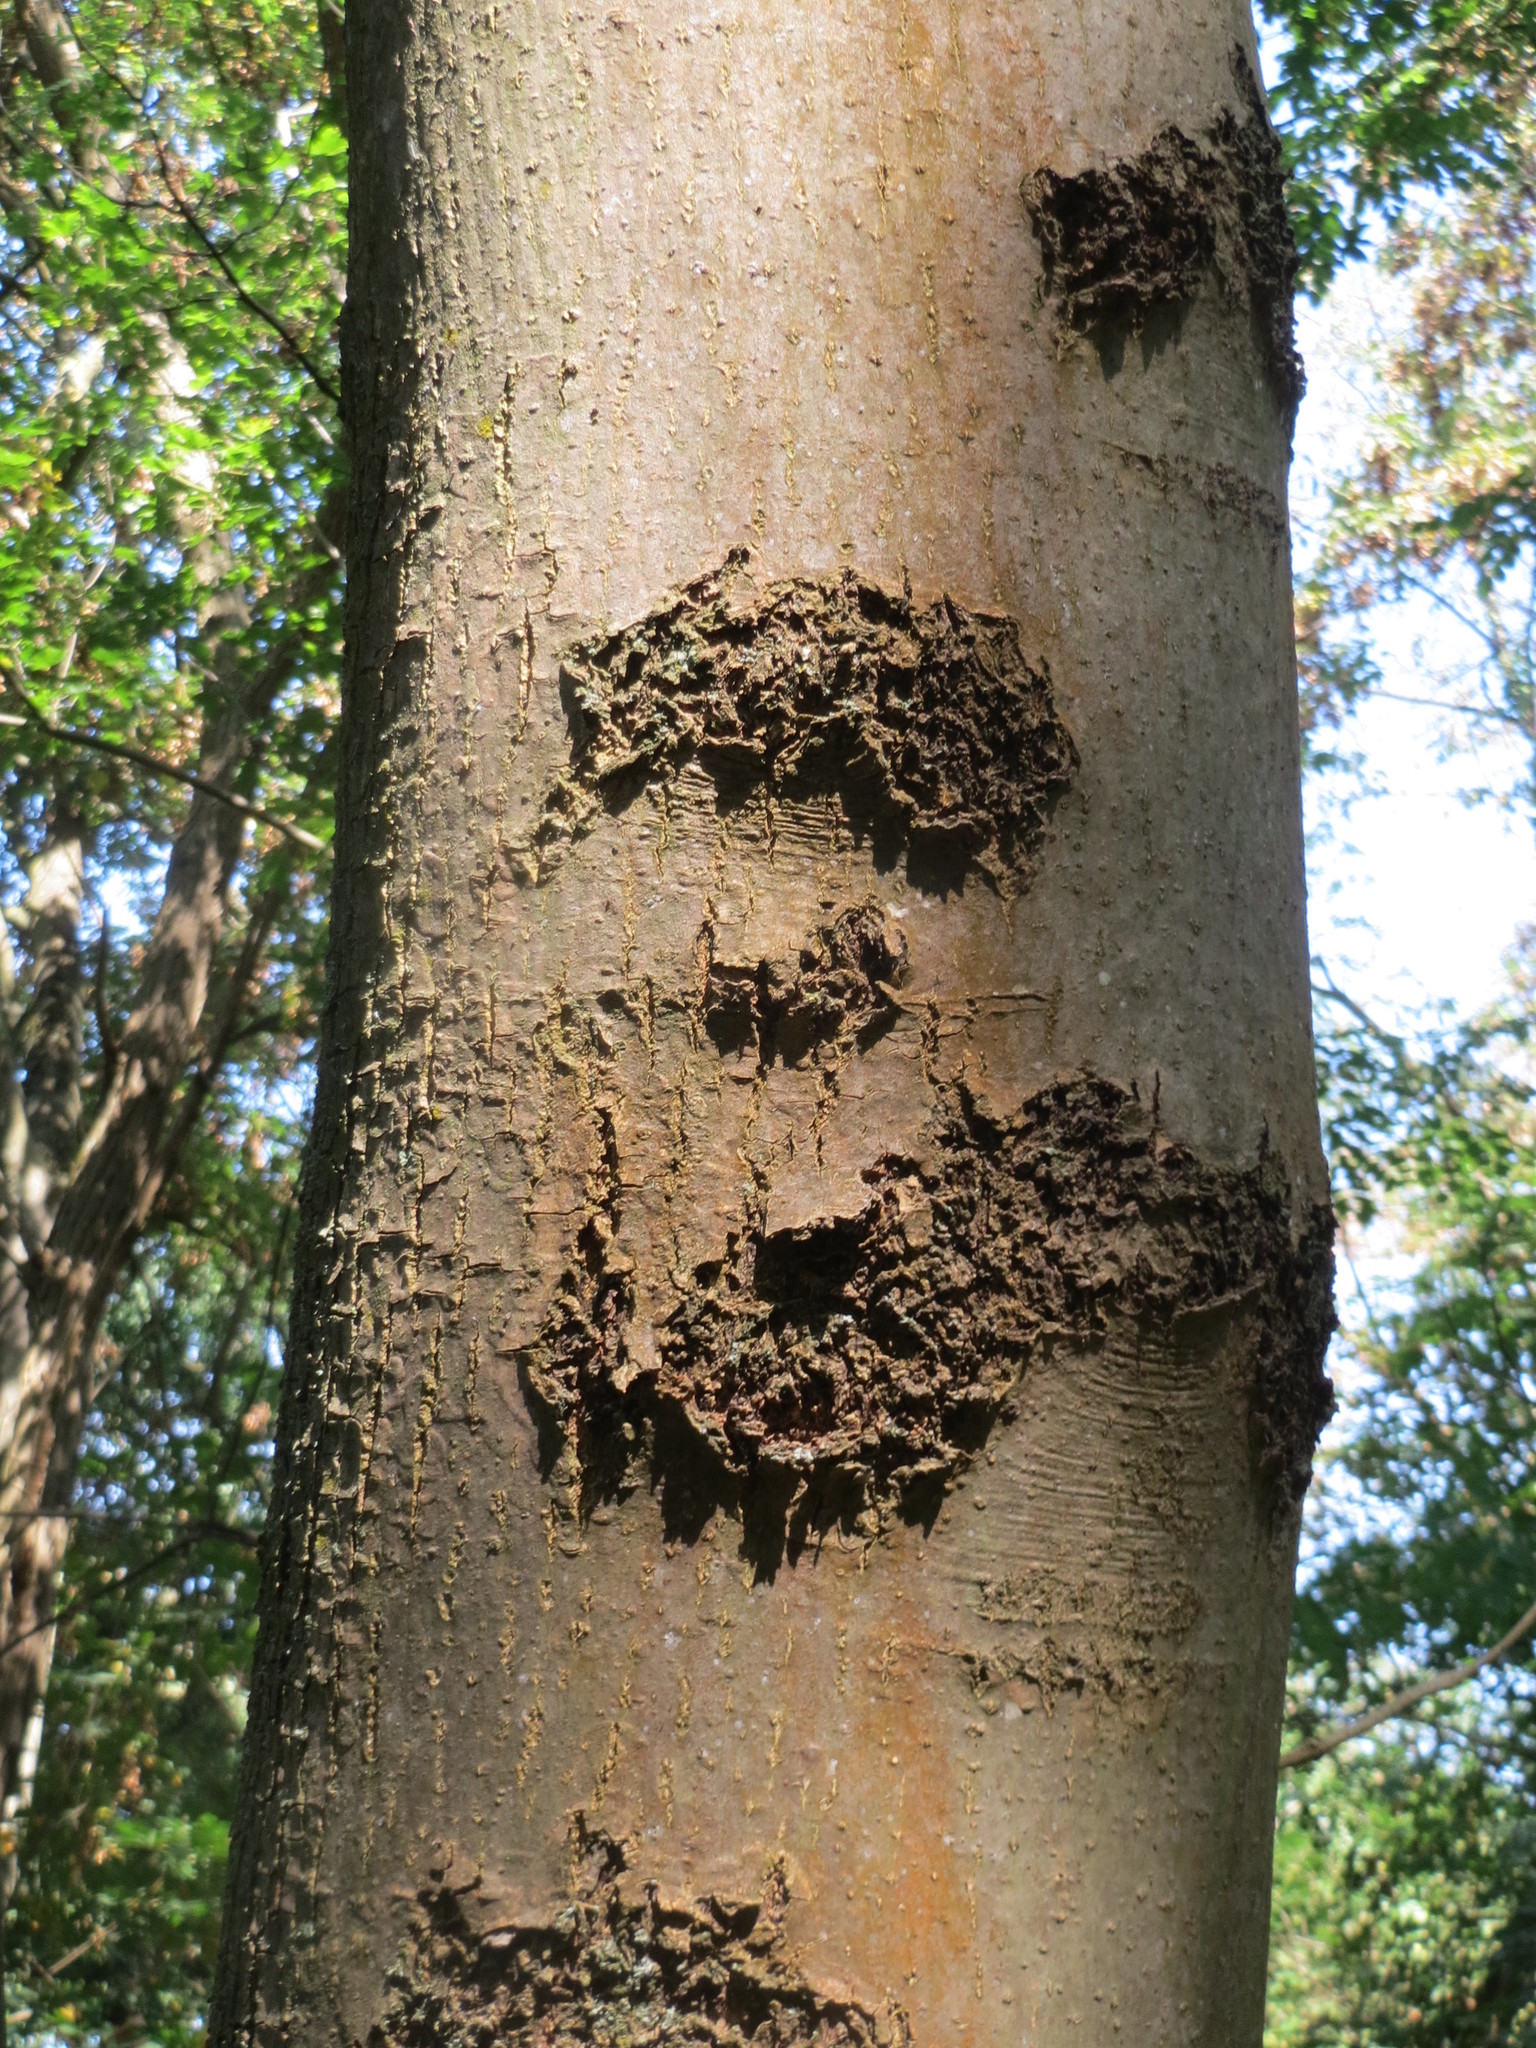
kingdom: Plantae
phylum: Tracheophyta
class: Magnoliopsida
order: Lamiales
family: Oleaceae
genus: Fraxinus
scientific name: Fraxinus excelsior
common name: European ash
